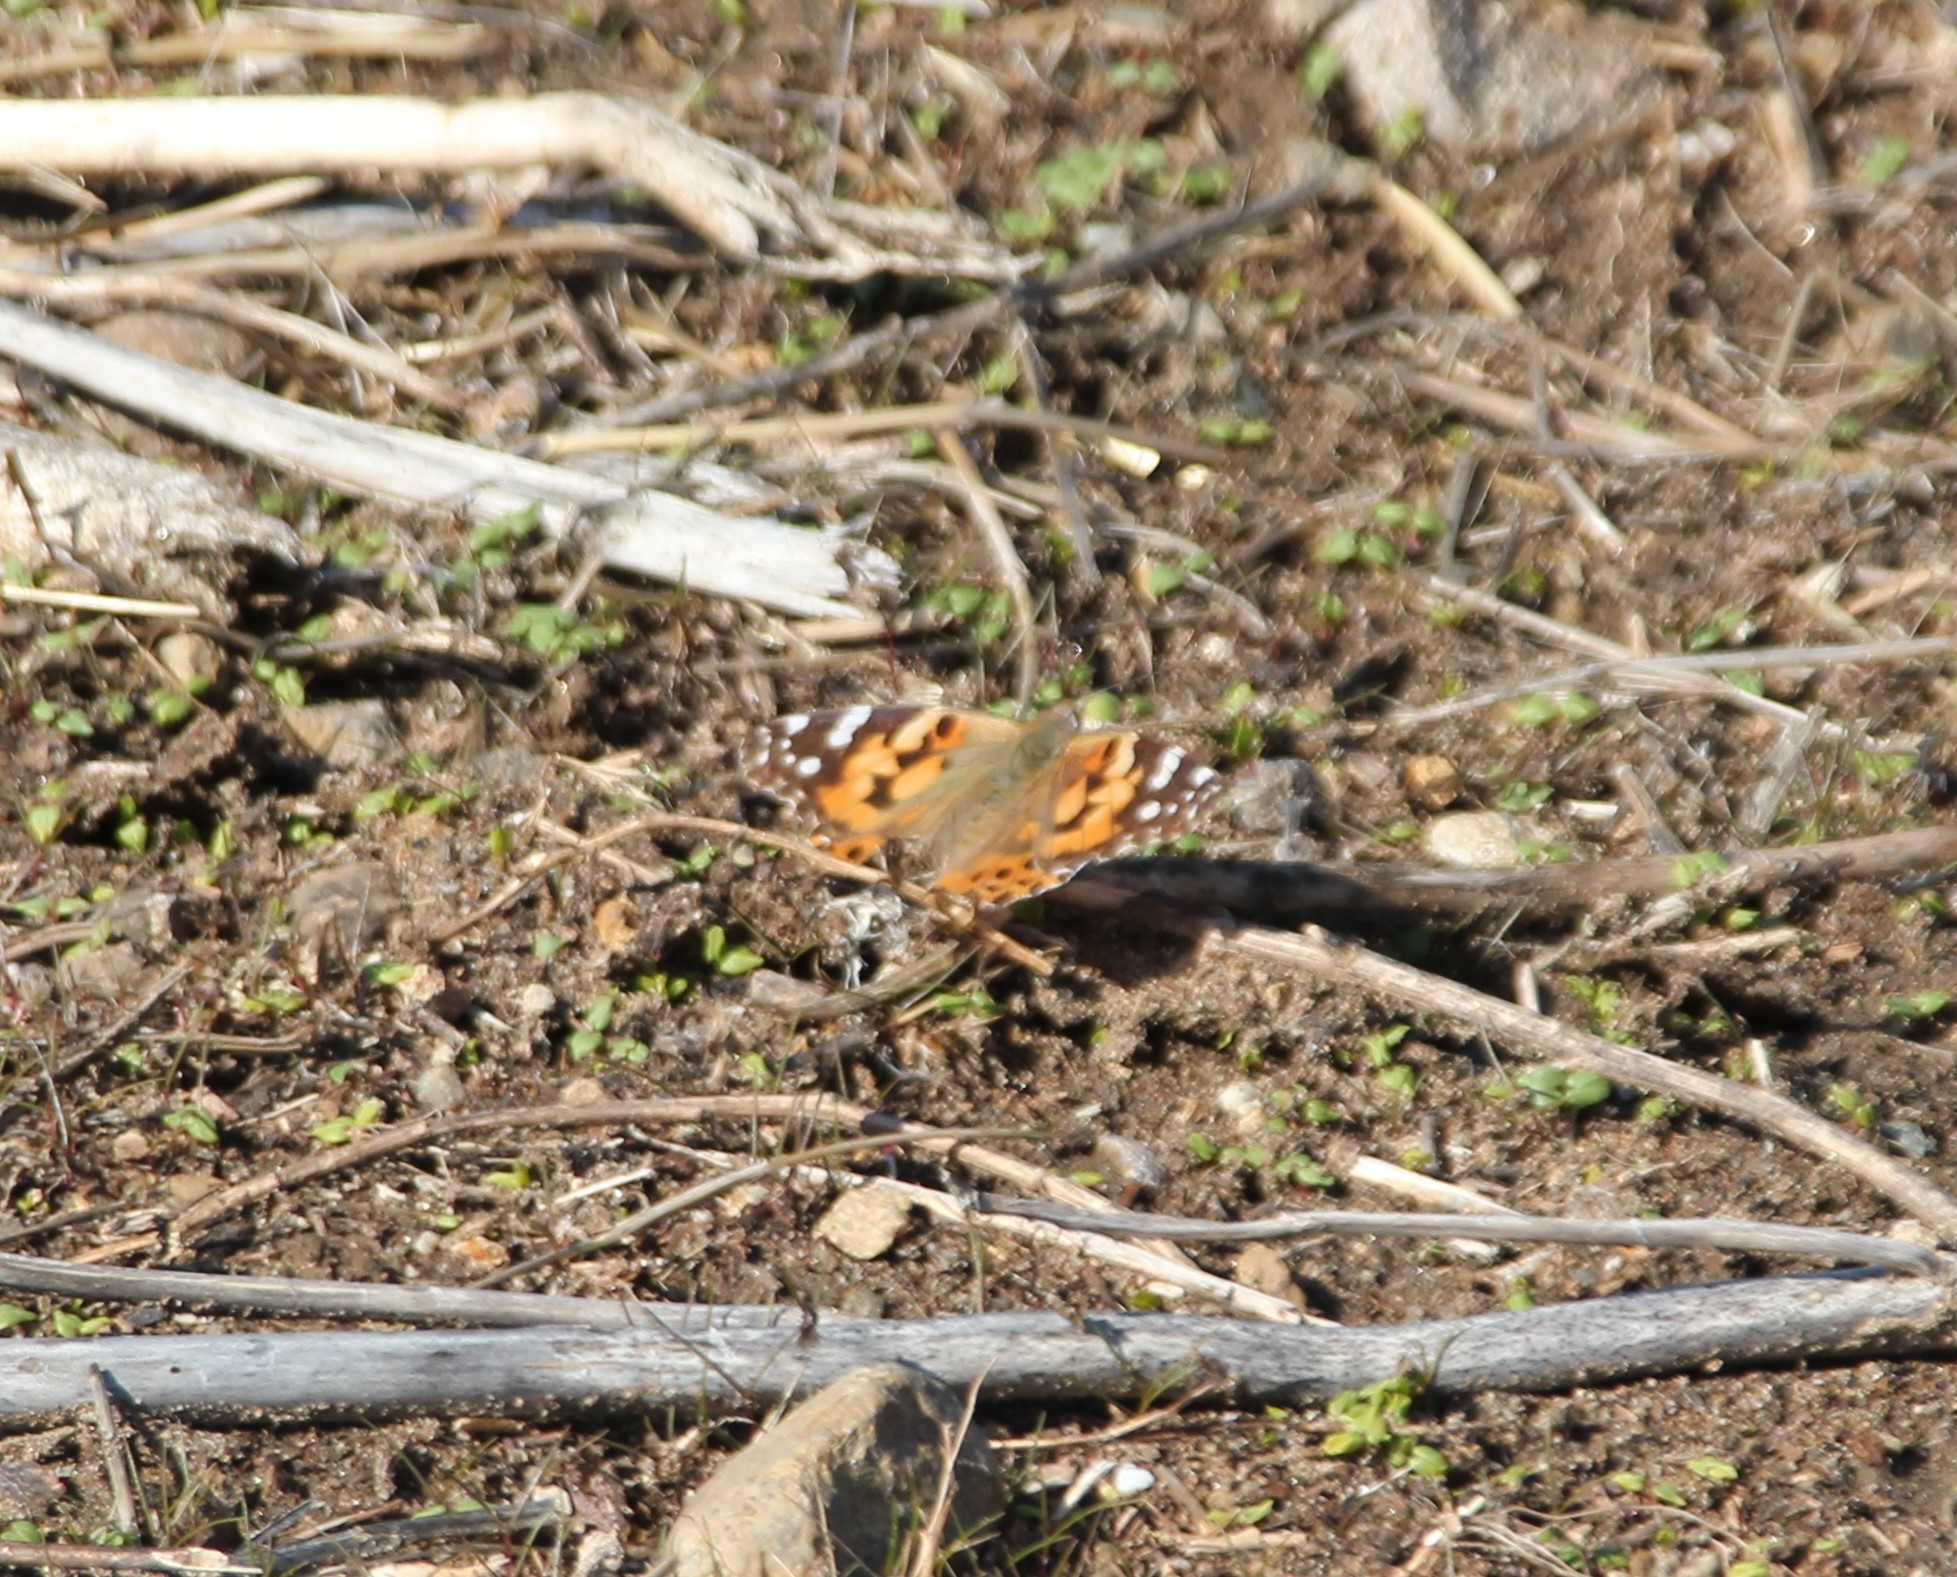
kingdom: Animalia
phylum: Arthropoda
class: Insecta
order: Lepidoptera
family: Nymphalidae
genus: Vanessa
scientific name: Vanessa cardui
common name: Painted lady
